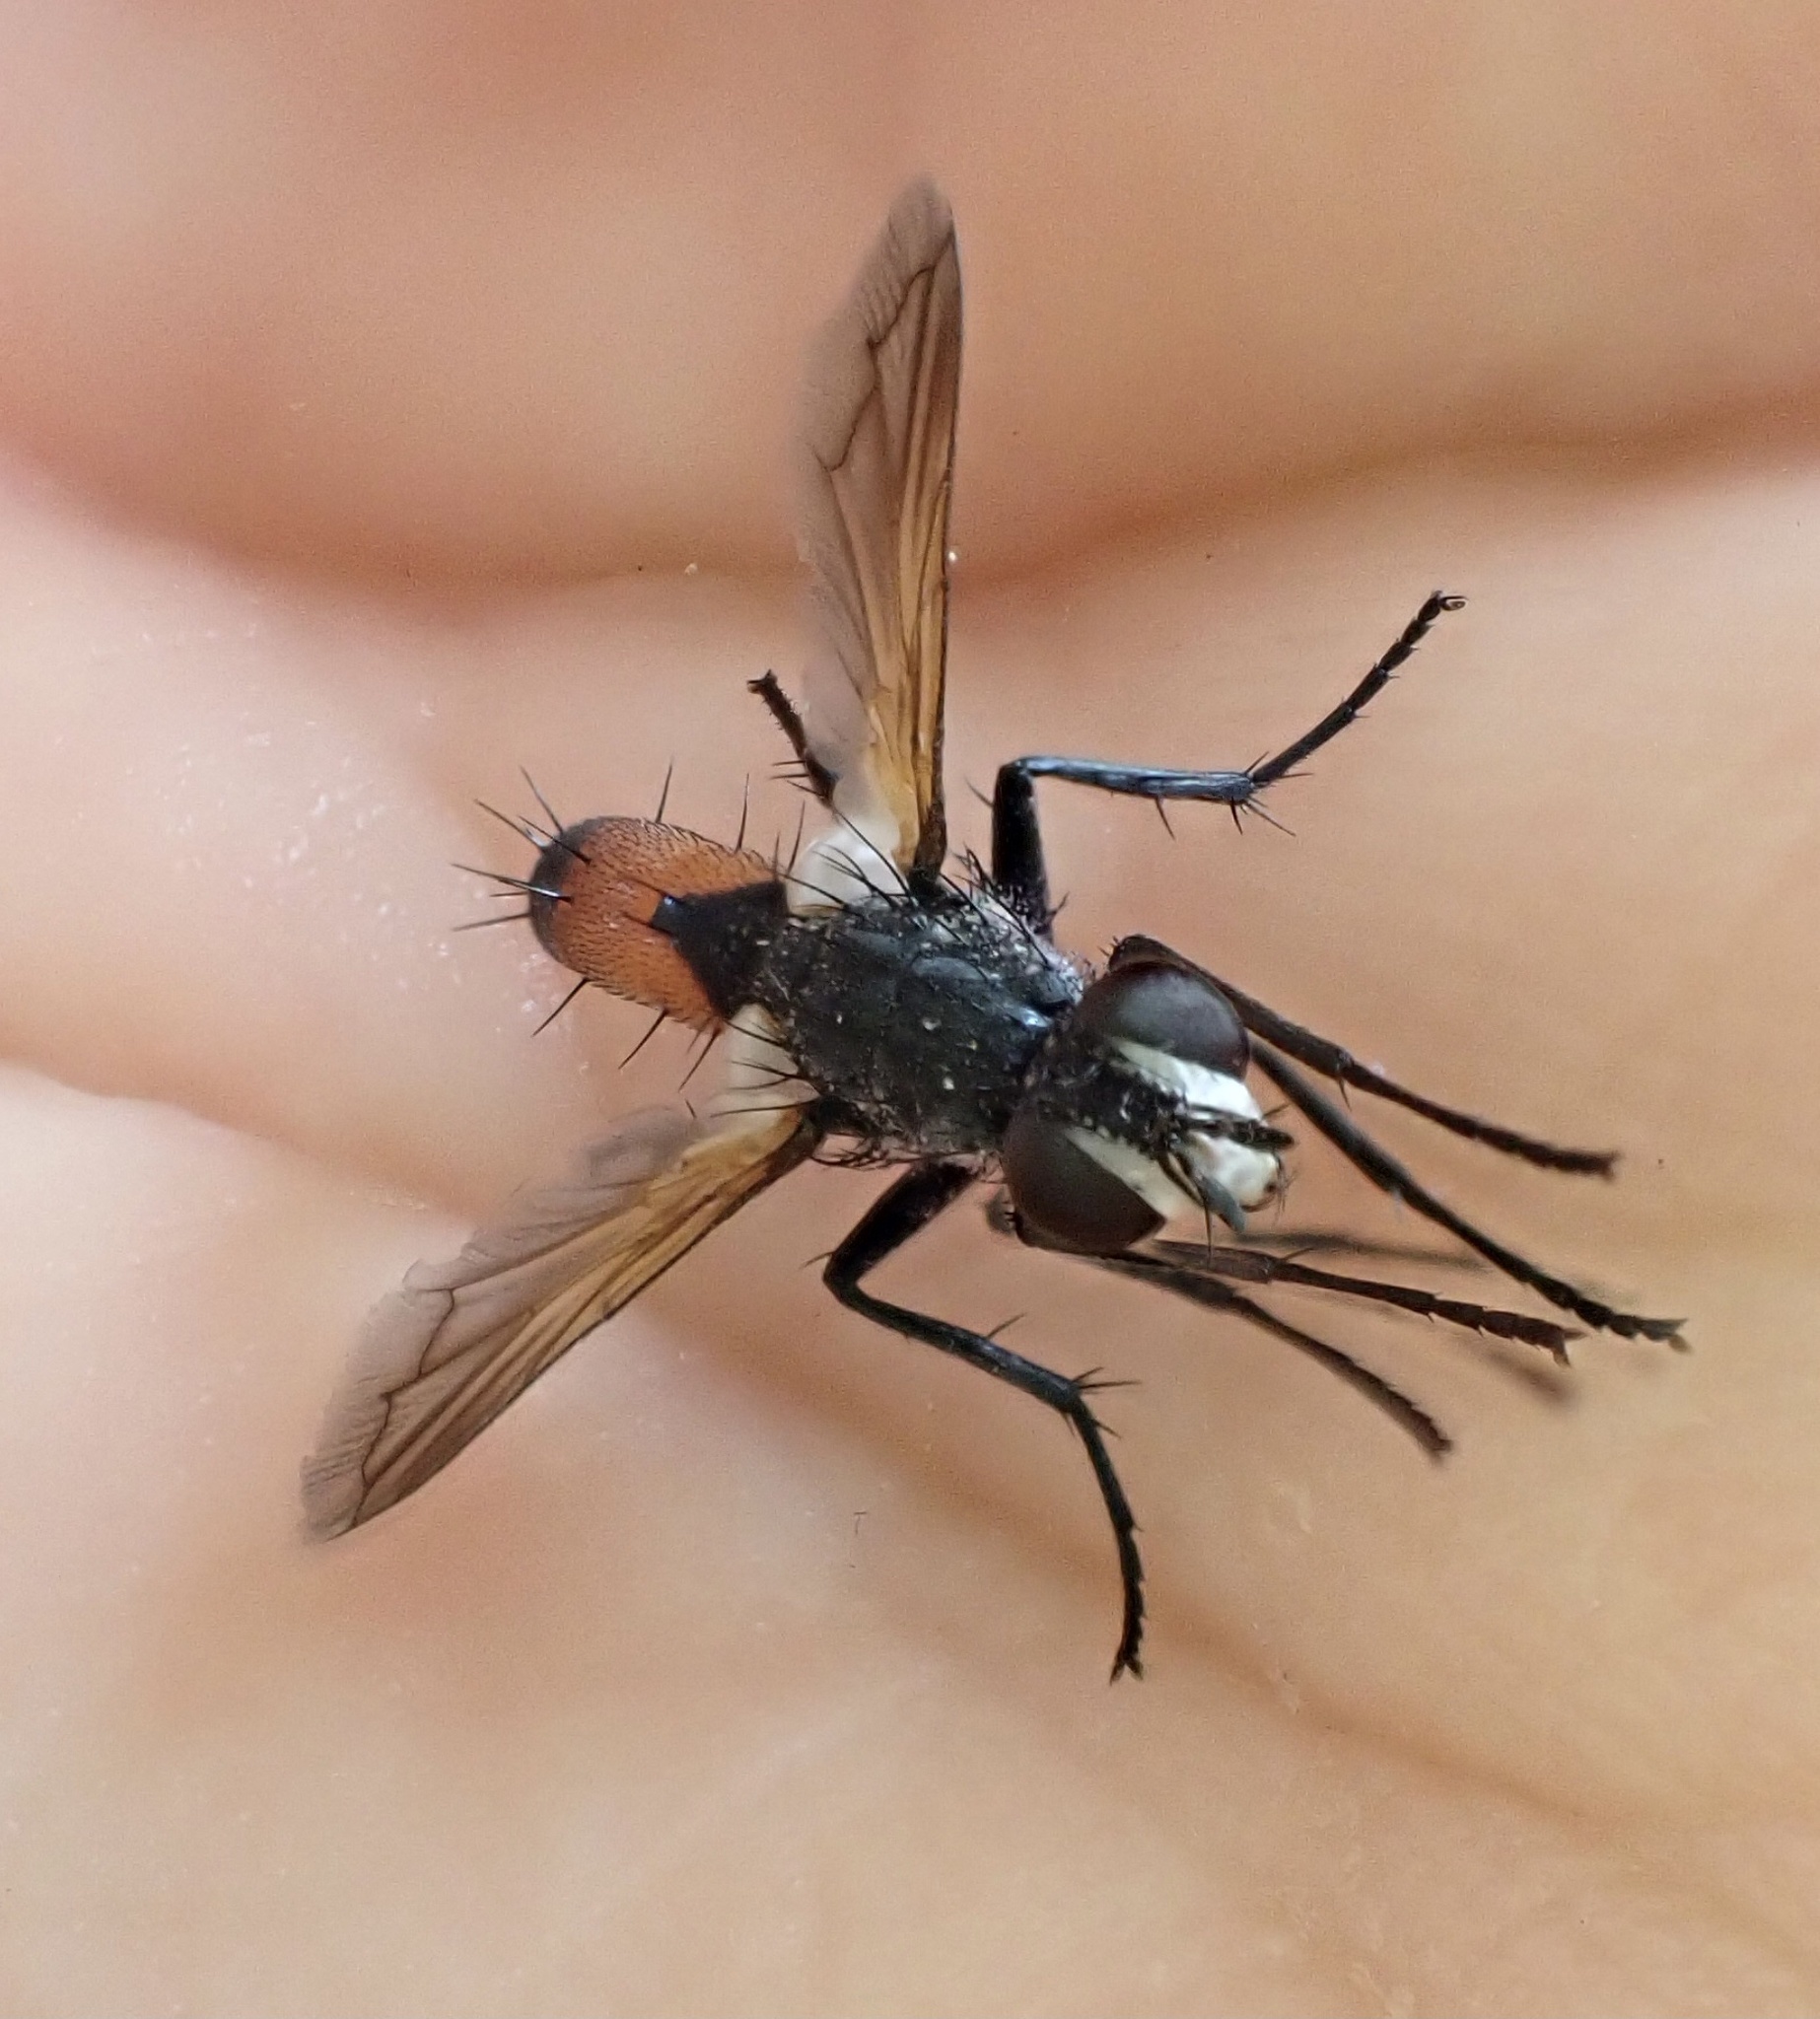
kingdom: Animalia
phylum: Arthropoda
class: Insecta
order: Diptera
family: Tachinidae
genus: Cylindromyia
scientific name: Cylindromyia brassicaria
